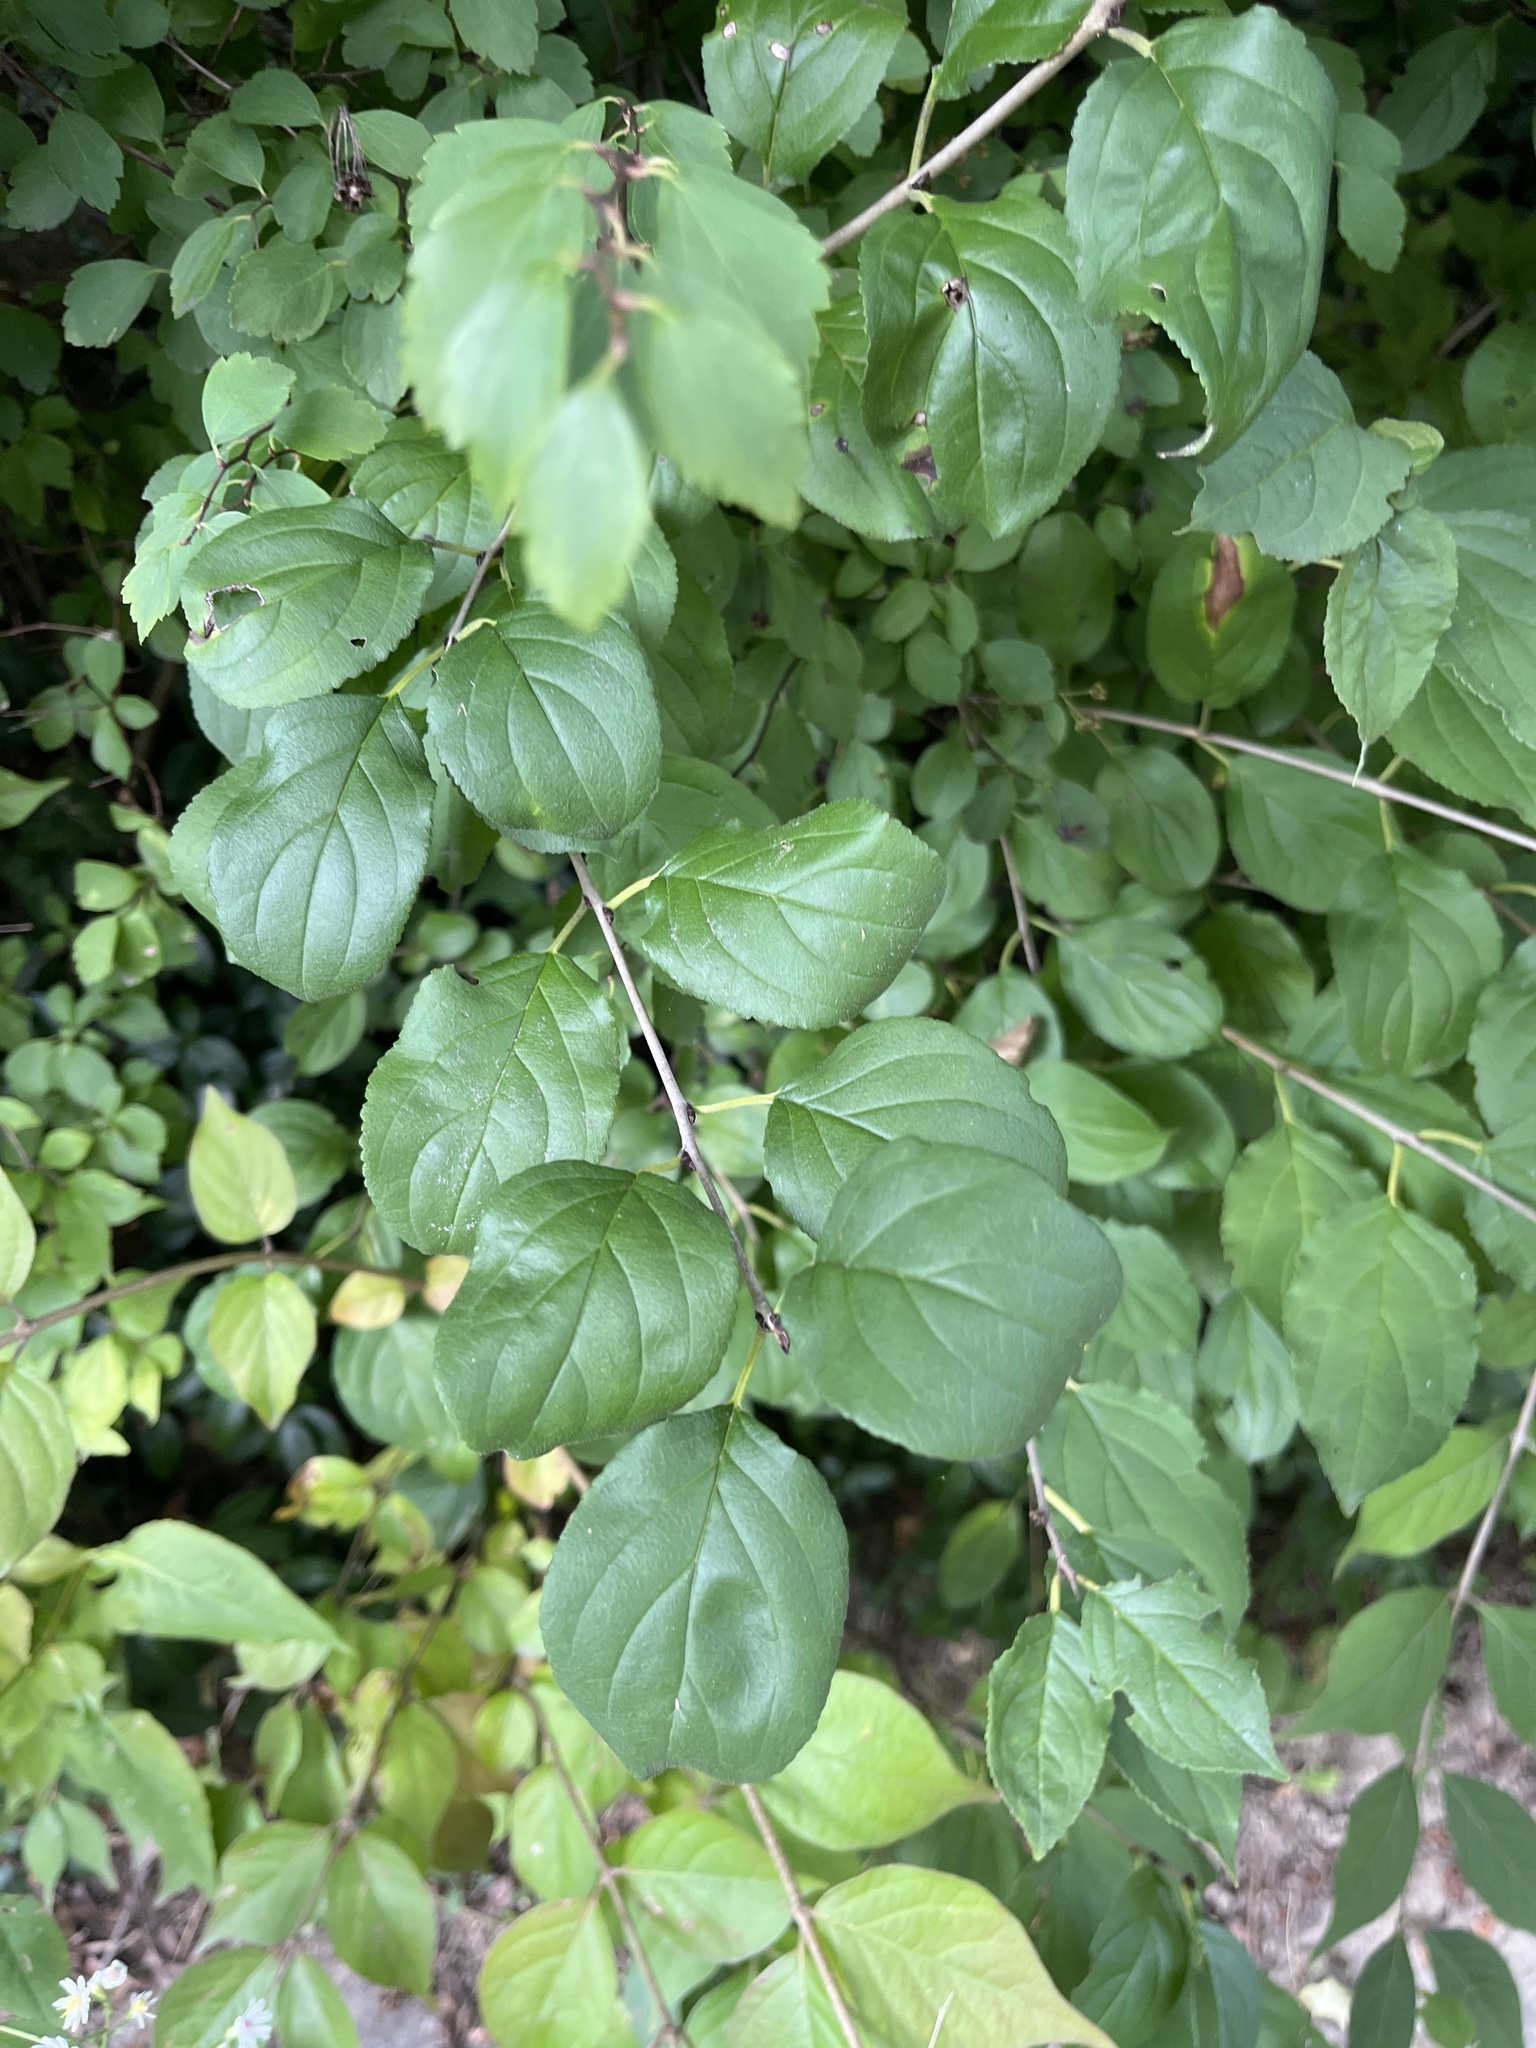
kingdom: Plantae
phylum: Tracheophyta
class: Magnoliopsida
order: Rosales
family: Rhamnaceae
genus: Rhamnus
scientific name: Rhamnus cathartica
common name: Common buckthorn
